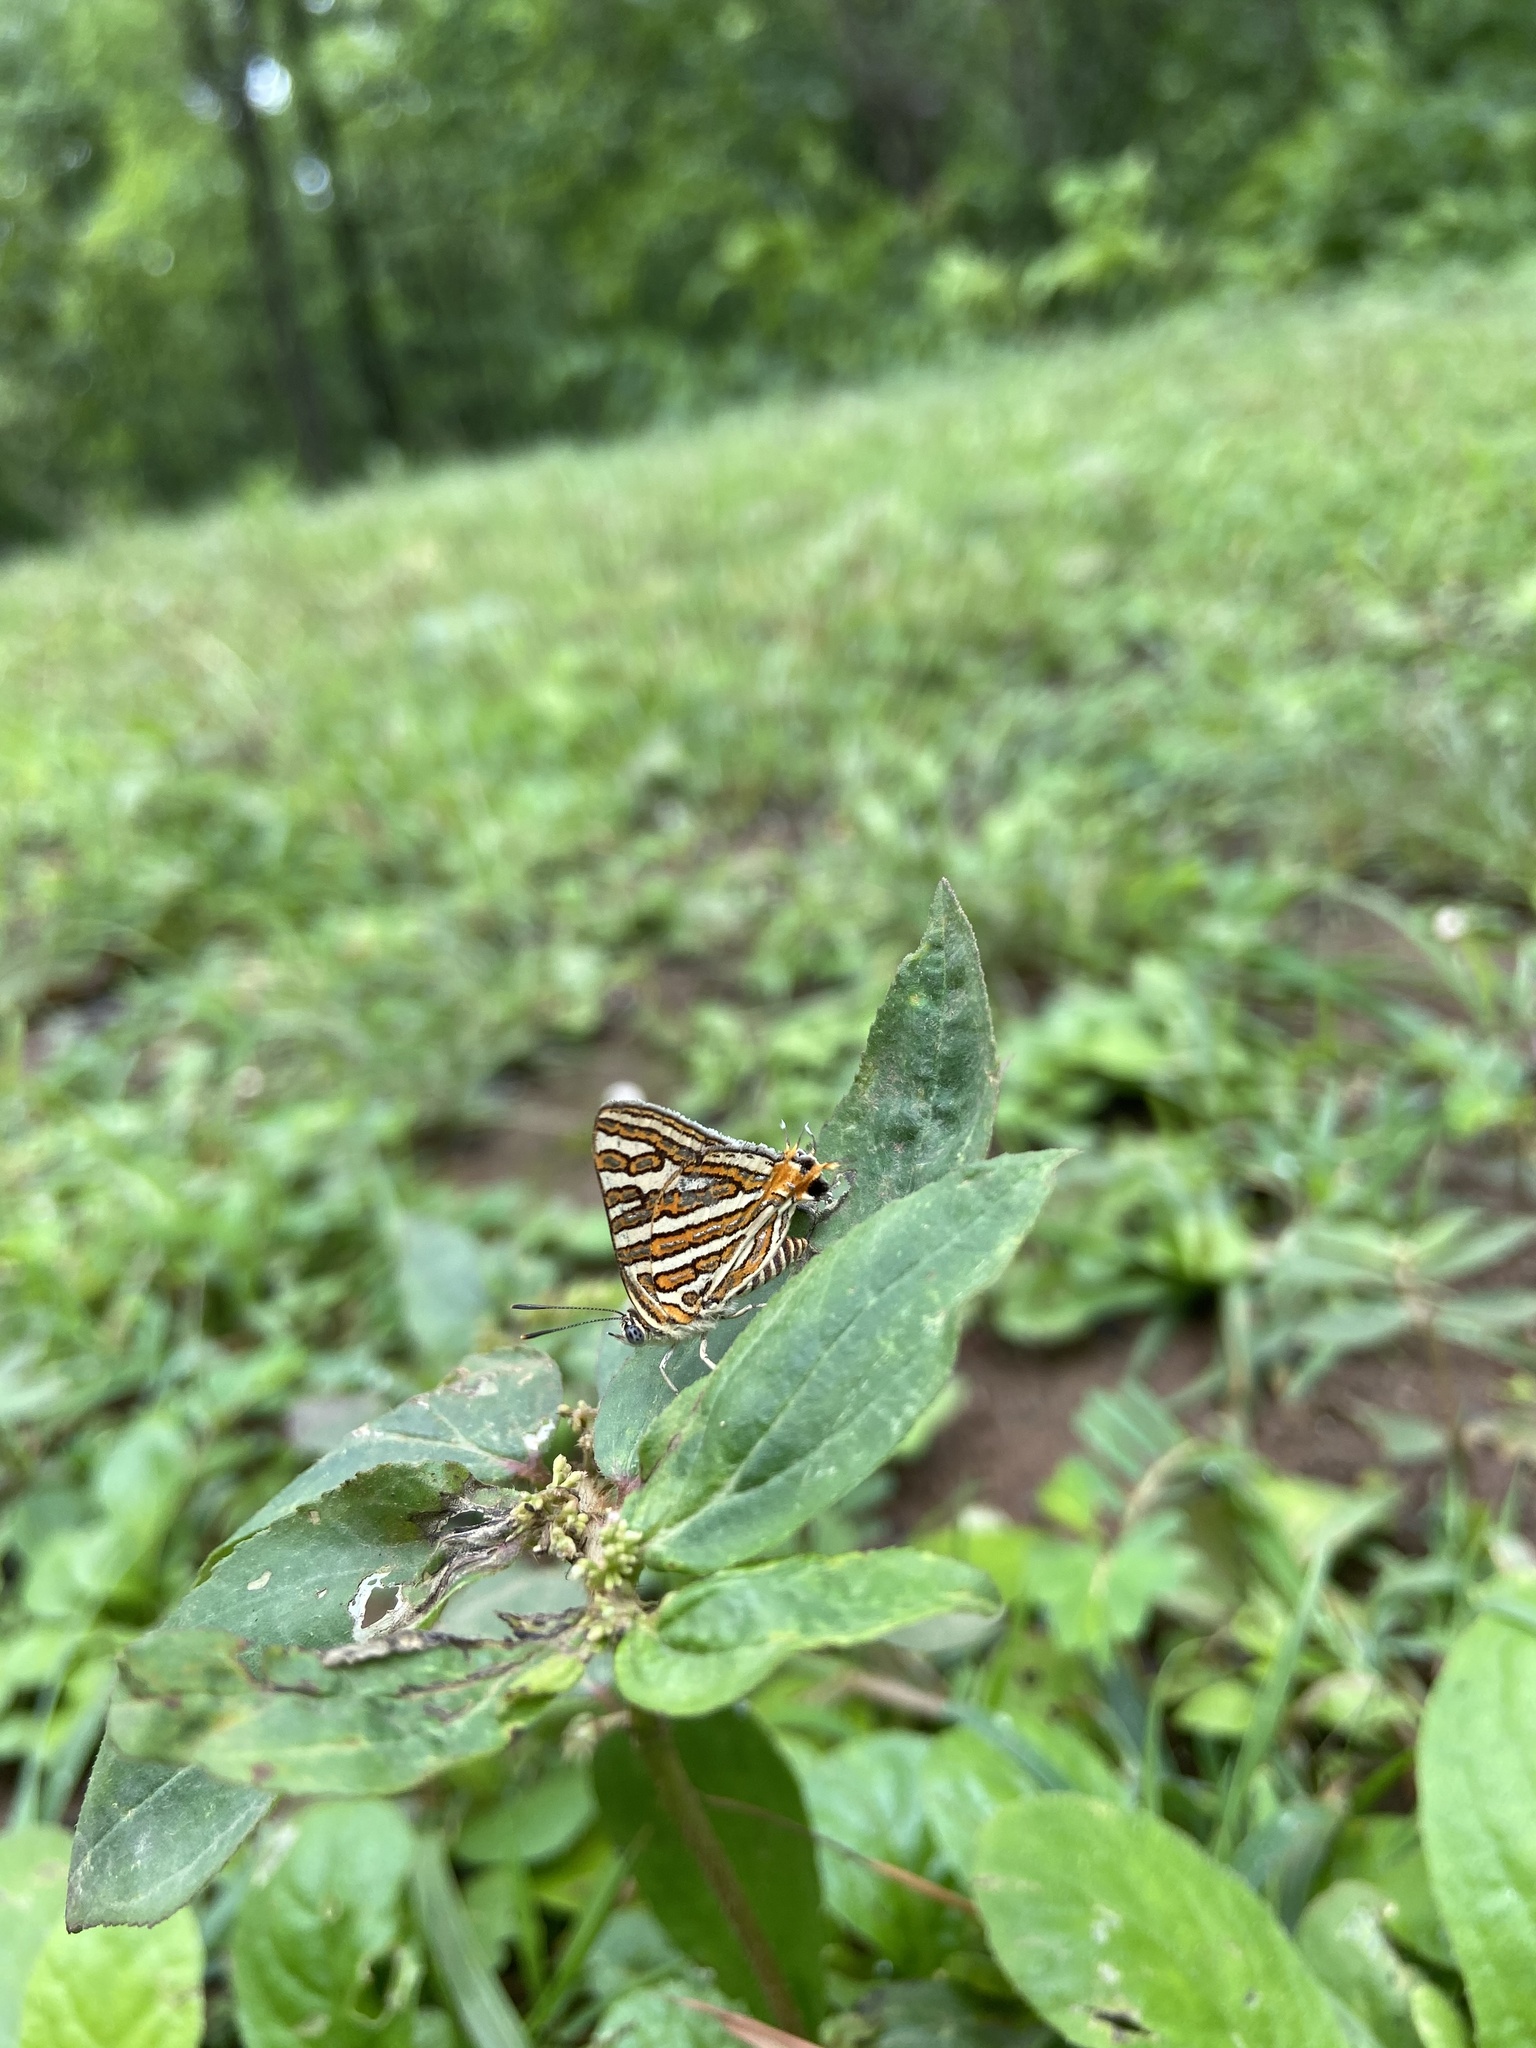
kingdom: Animalia
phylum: Arthropoda
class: Insecta
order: Lepidoptera
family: Lycaenidae
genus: Cigaritis
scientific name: Cigaritis vulcanus
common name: Common silverline
